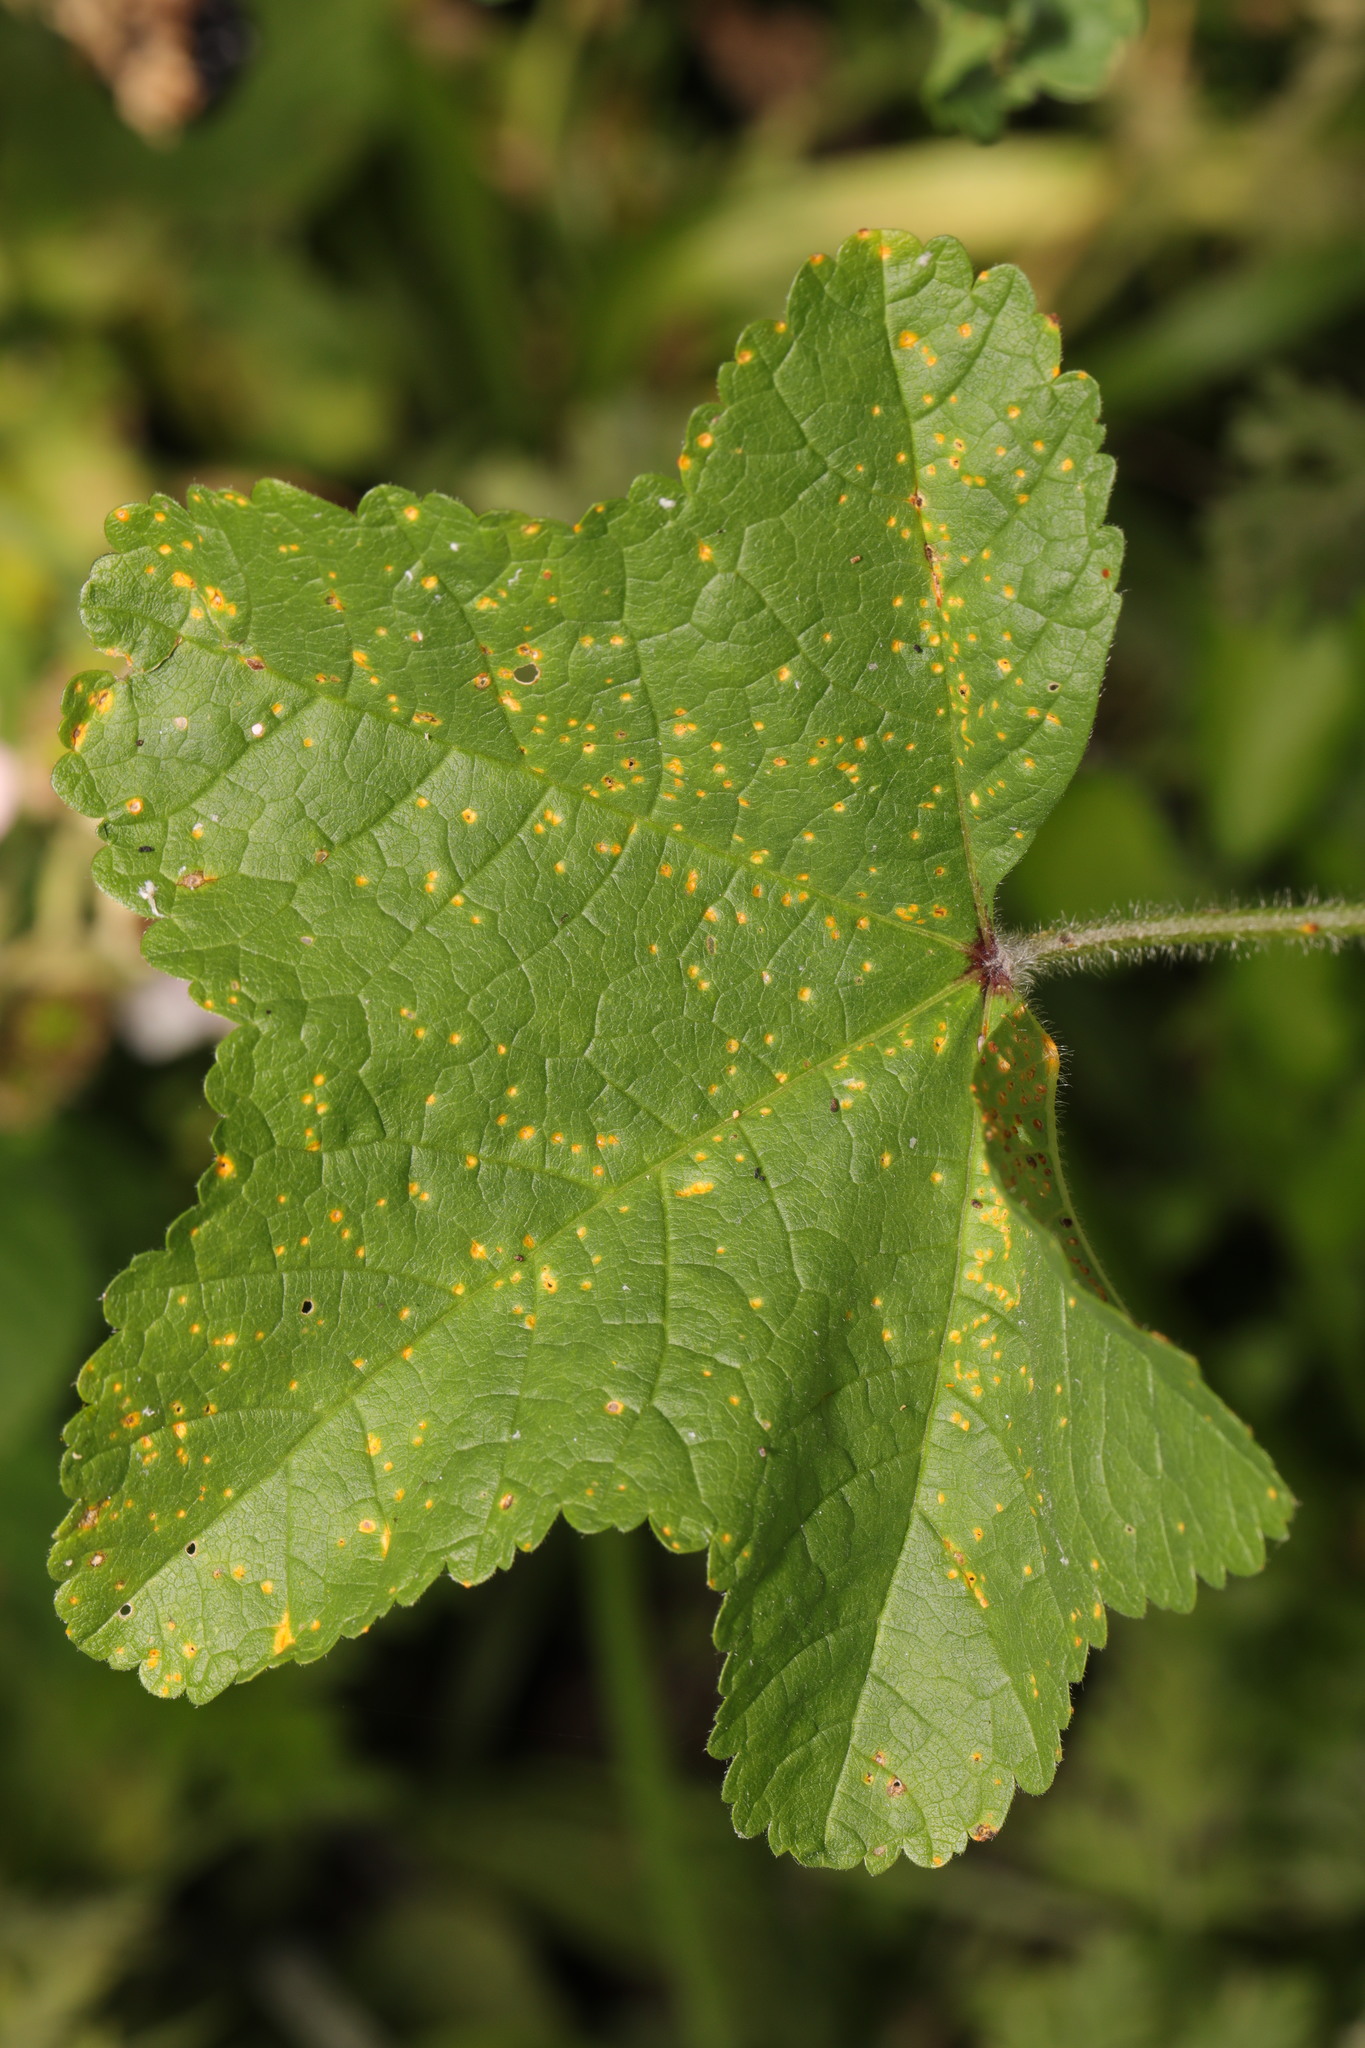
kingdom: Fungi
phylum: Basidiomycota
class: Pucciniomycetes
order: Pucciniales
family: Pucciniaceae
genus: Puccinia
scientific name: Puccinia malvacearum
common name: Hollyhock rust
